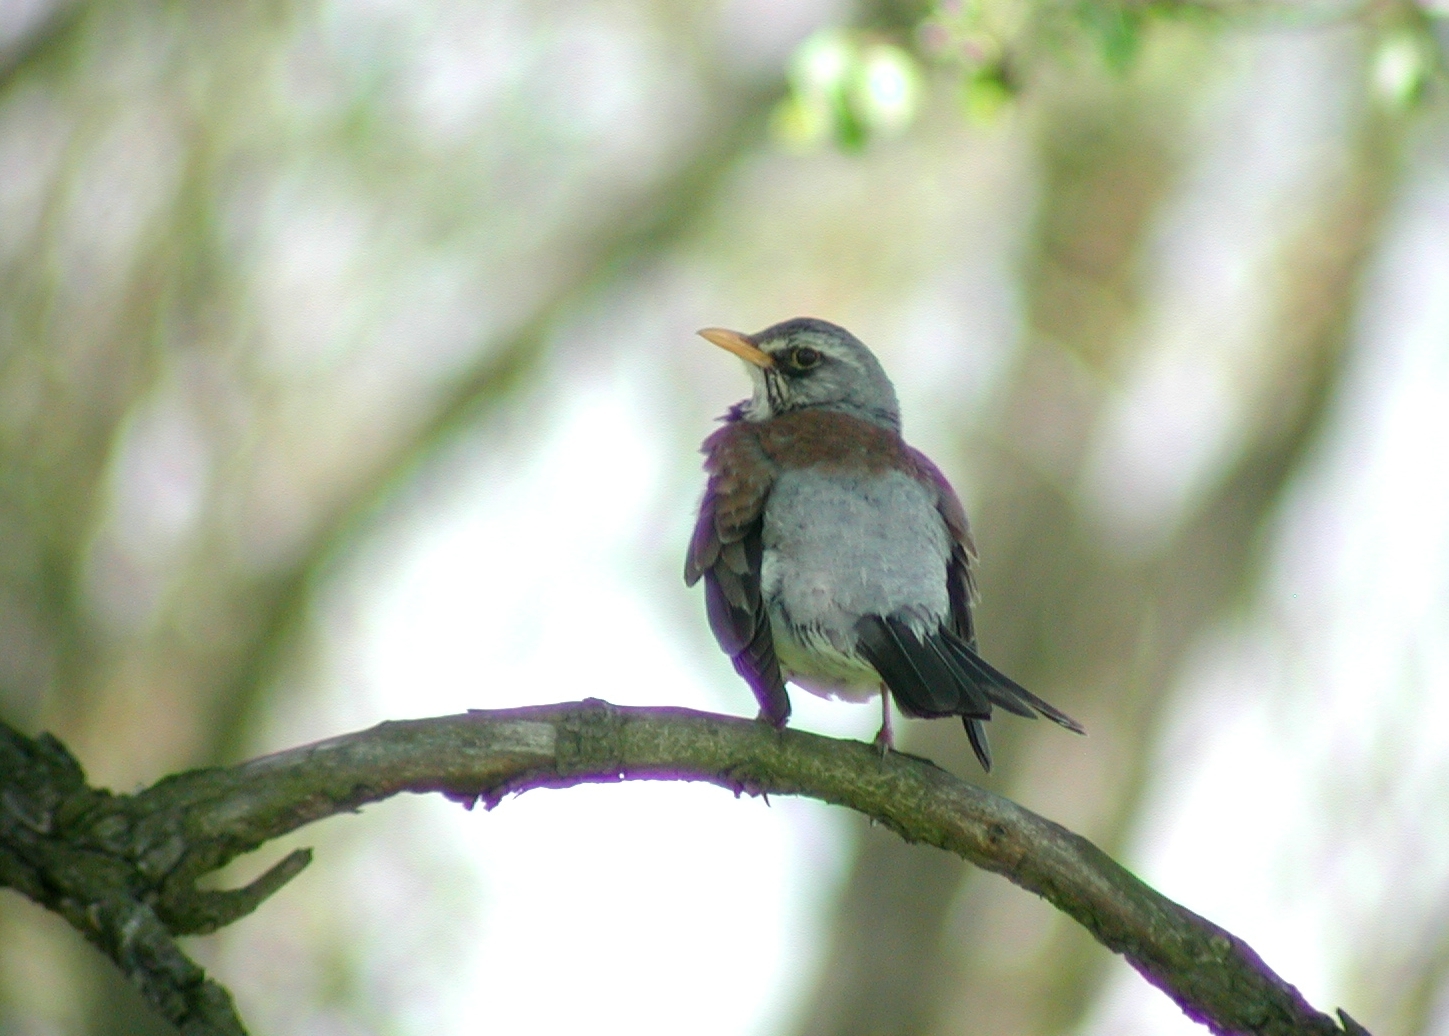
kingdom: Animalia
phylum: Chordata
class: Aves
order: Passeriformes
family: Turdidae
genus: Turdus
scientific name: Turdus pilaris
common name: Fieldfare
